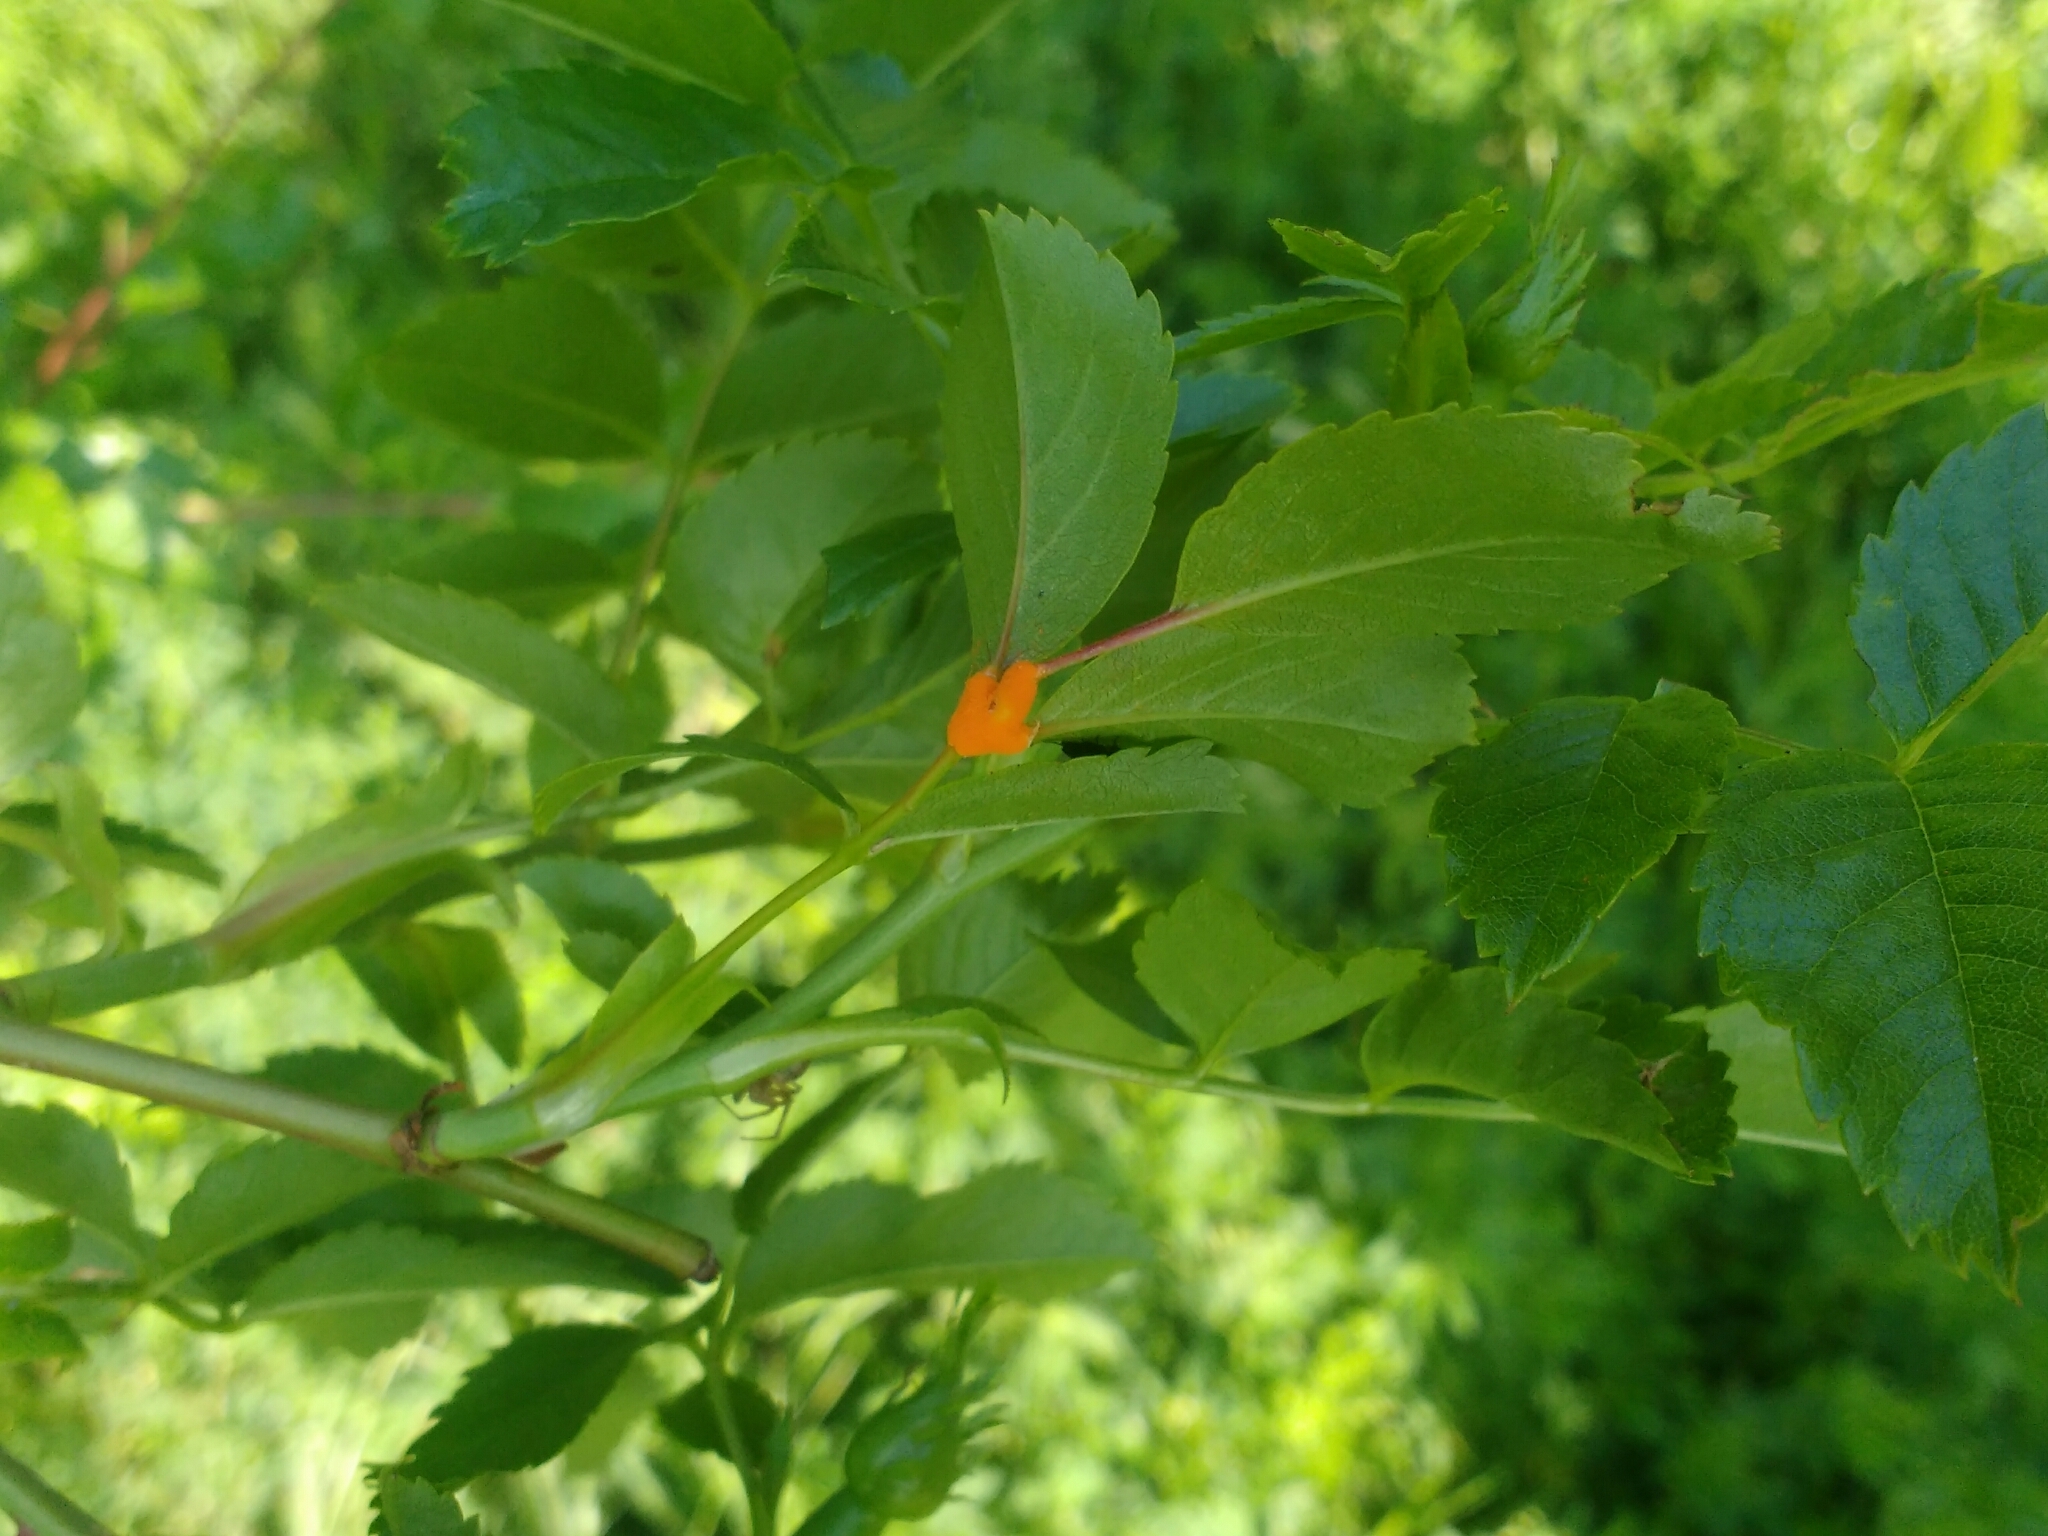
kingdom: Fungi
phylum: Basidiomycota
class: Pucciniomycetes
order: Pucciniales
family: Phragmidiaceae
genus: Phragmidium
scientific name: Phragmidium
